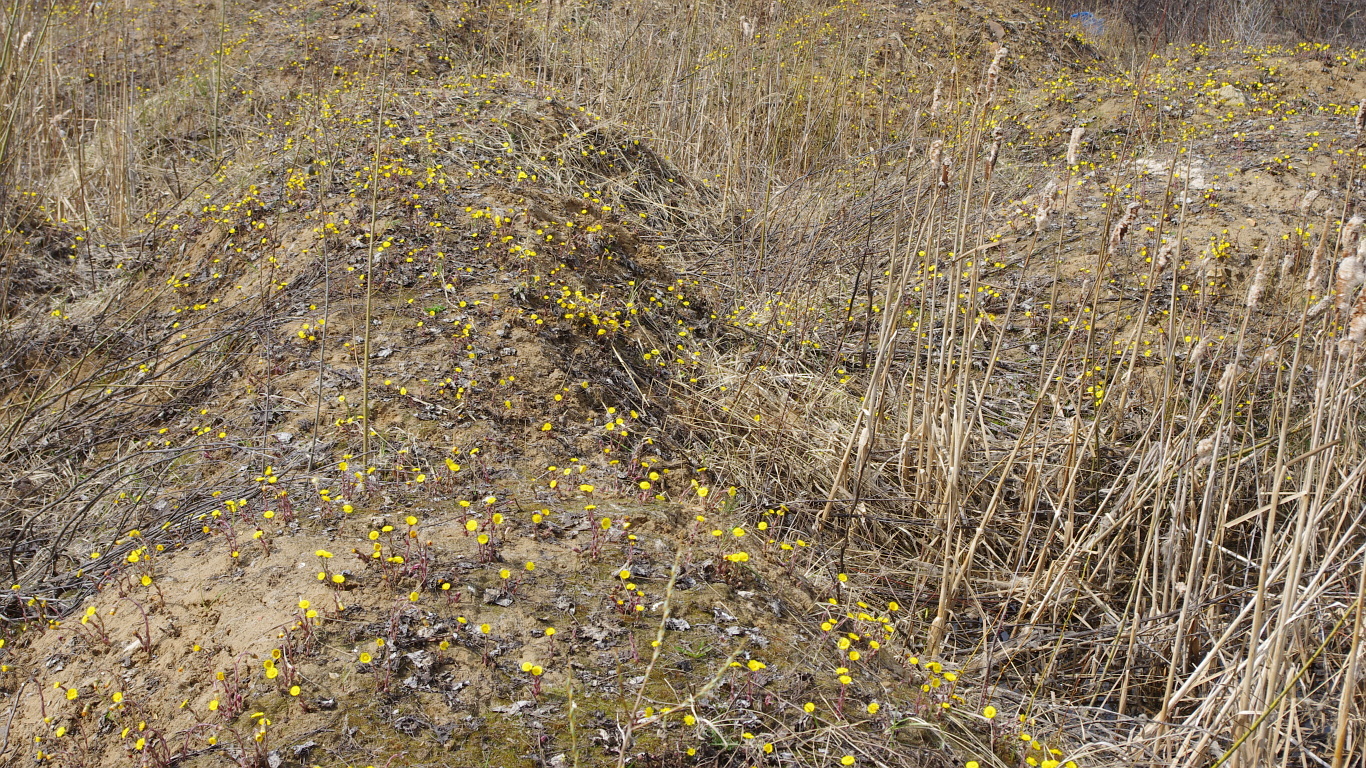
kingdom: Plantae
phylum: Tracheophyta
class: Magnoliopsida
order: Asterales
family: Asteraceae
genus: Tussilago
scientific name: Tussilago farfara
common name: Coltsfoot
